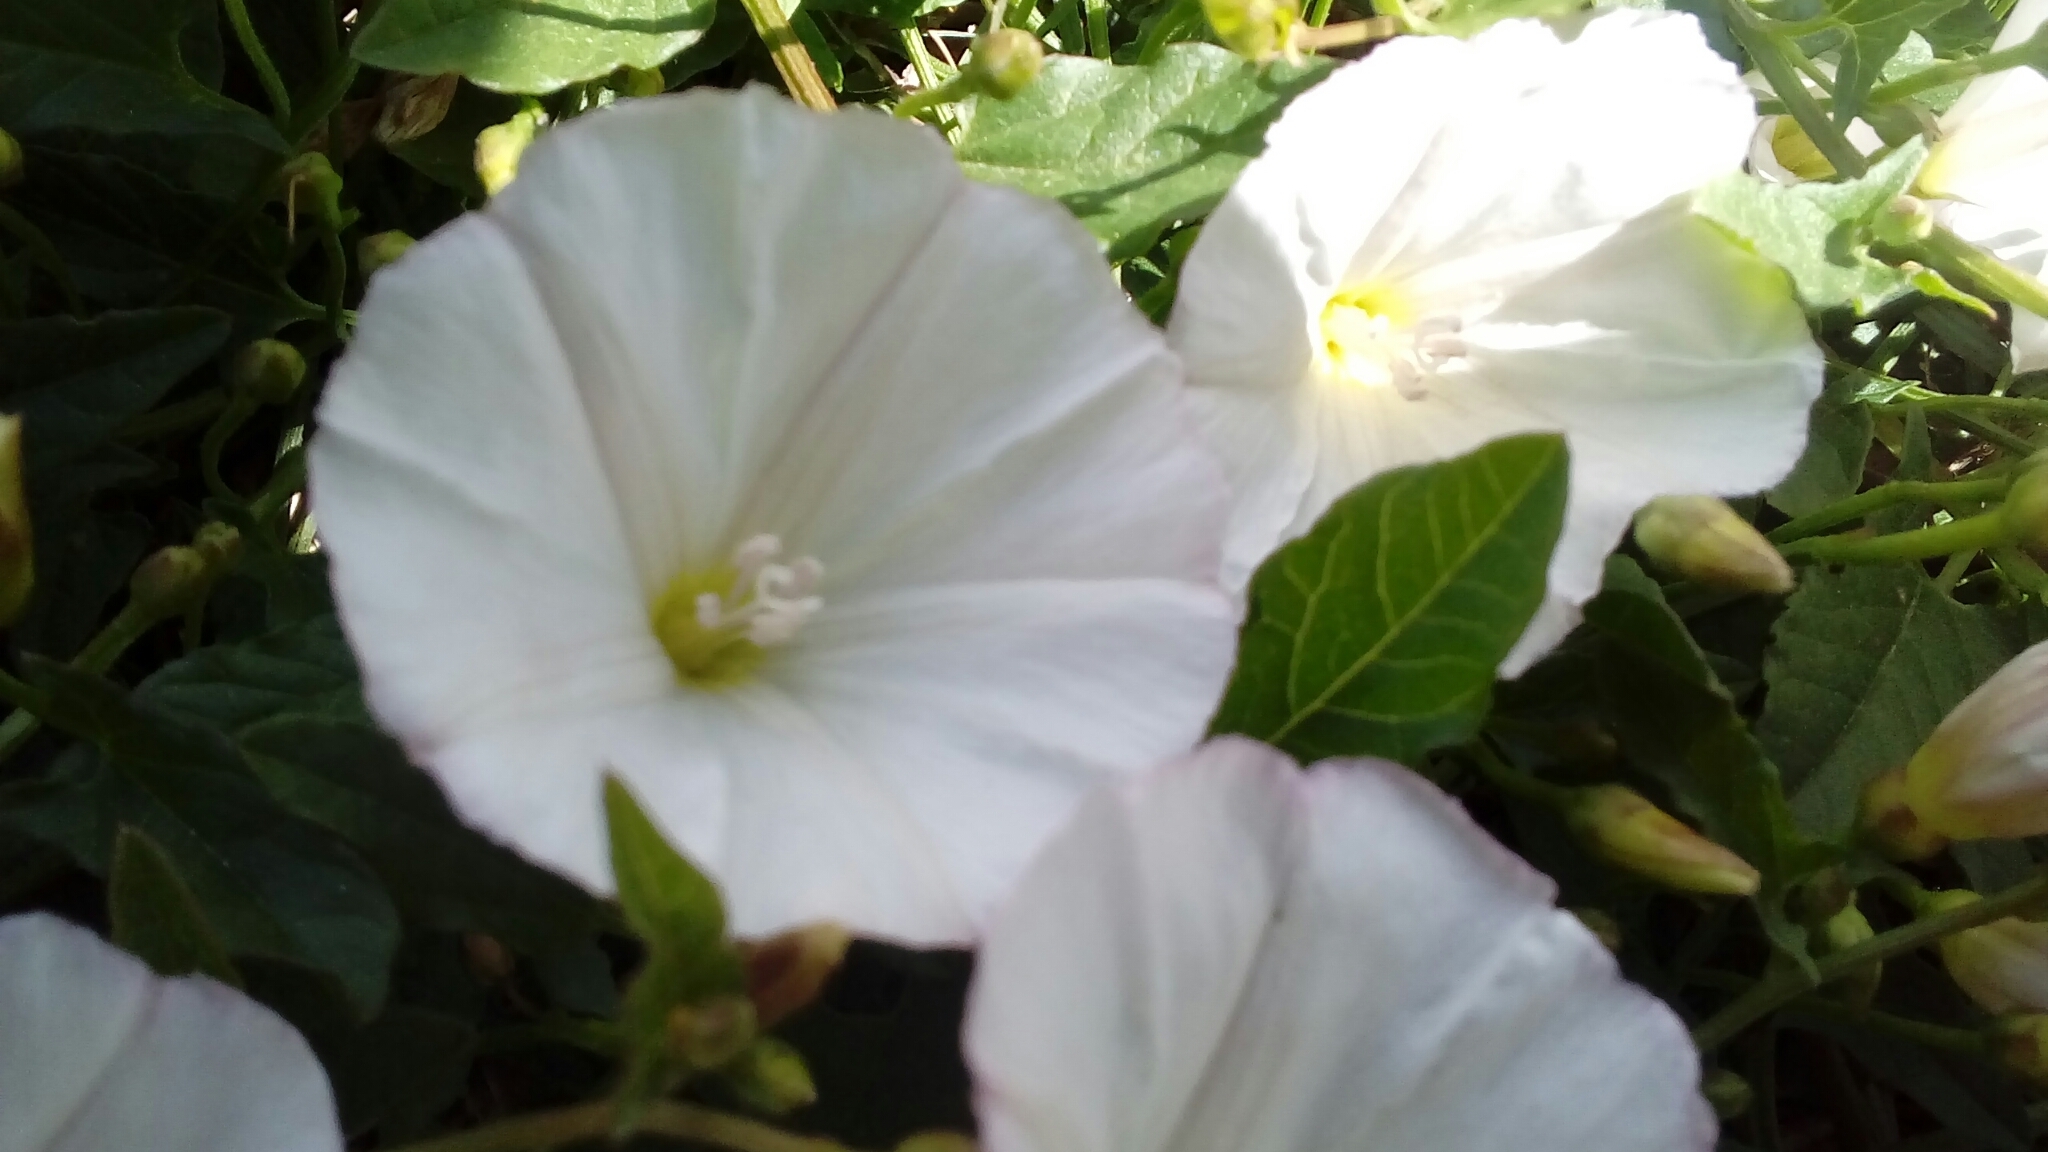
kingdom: Plantae
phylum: Tracheophyta
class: Magnoliopsida
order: Solanales
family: Convolvulaceae
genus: Convolvulus
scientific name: Convolvulus arvensis
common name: Field bindweed
